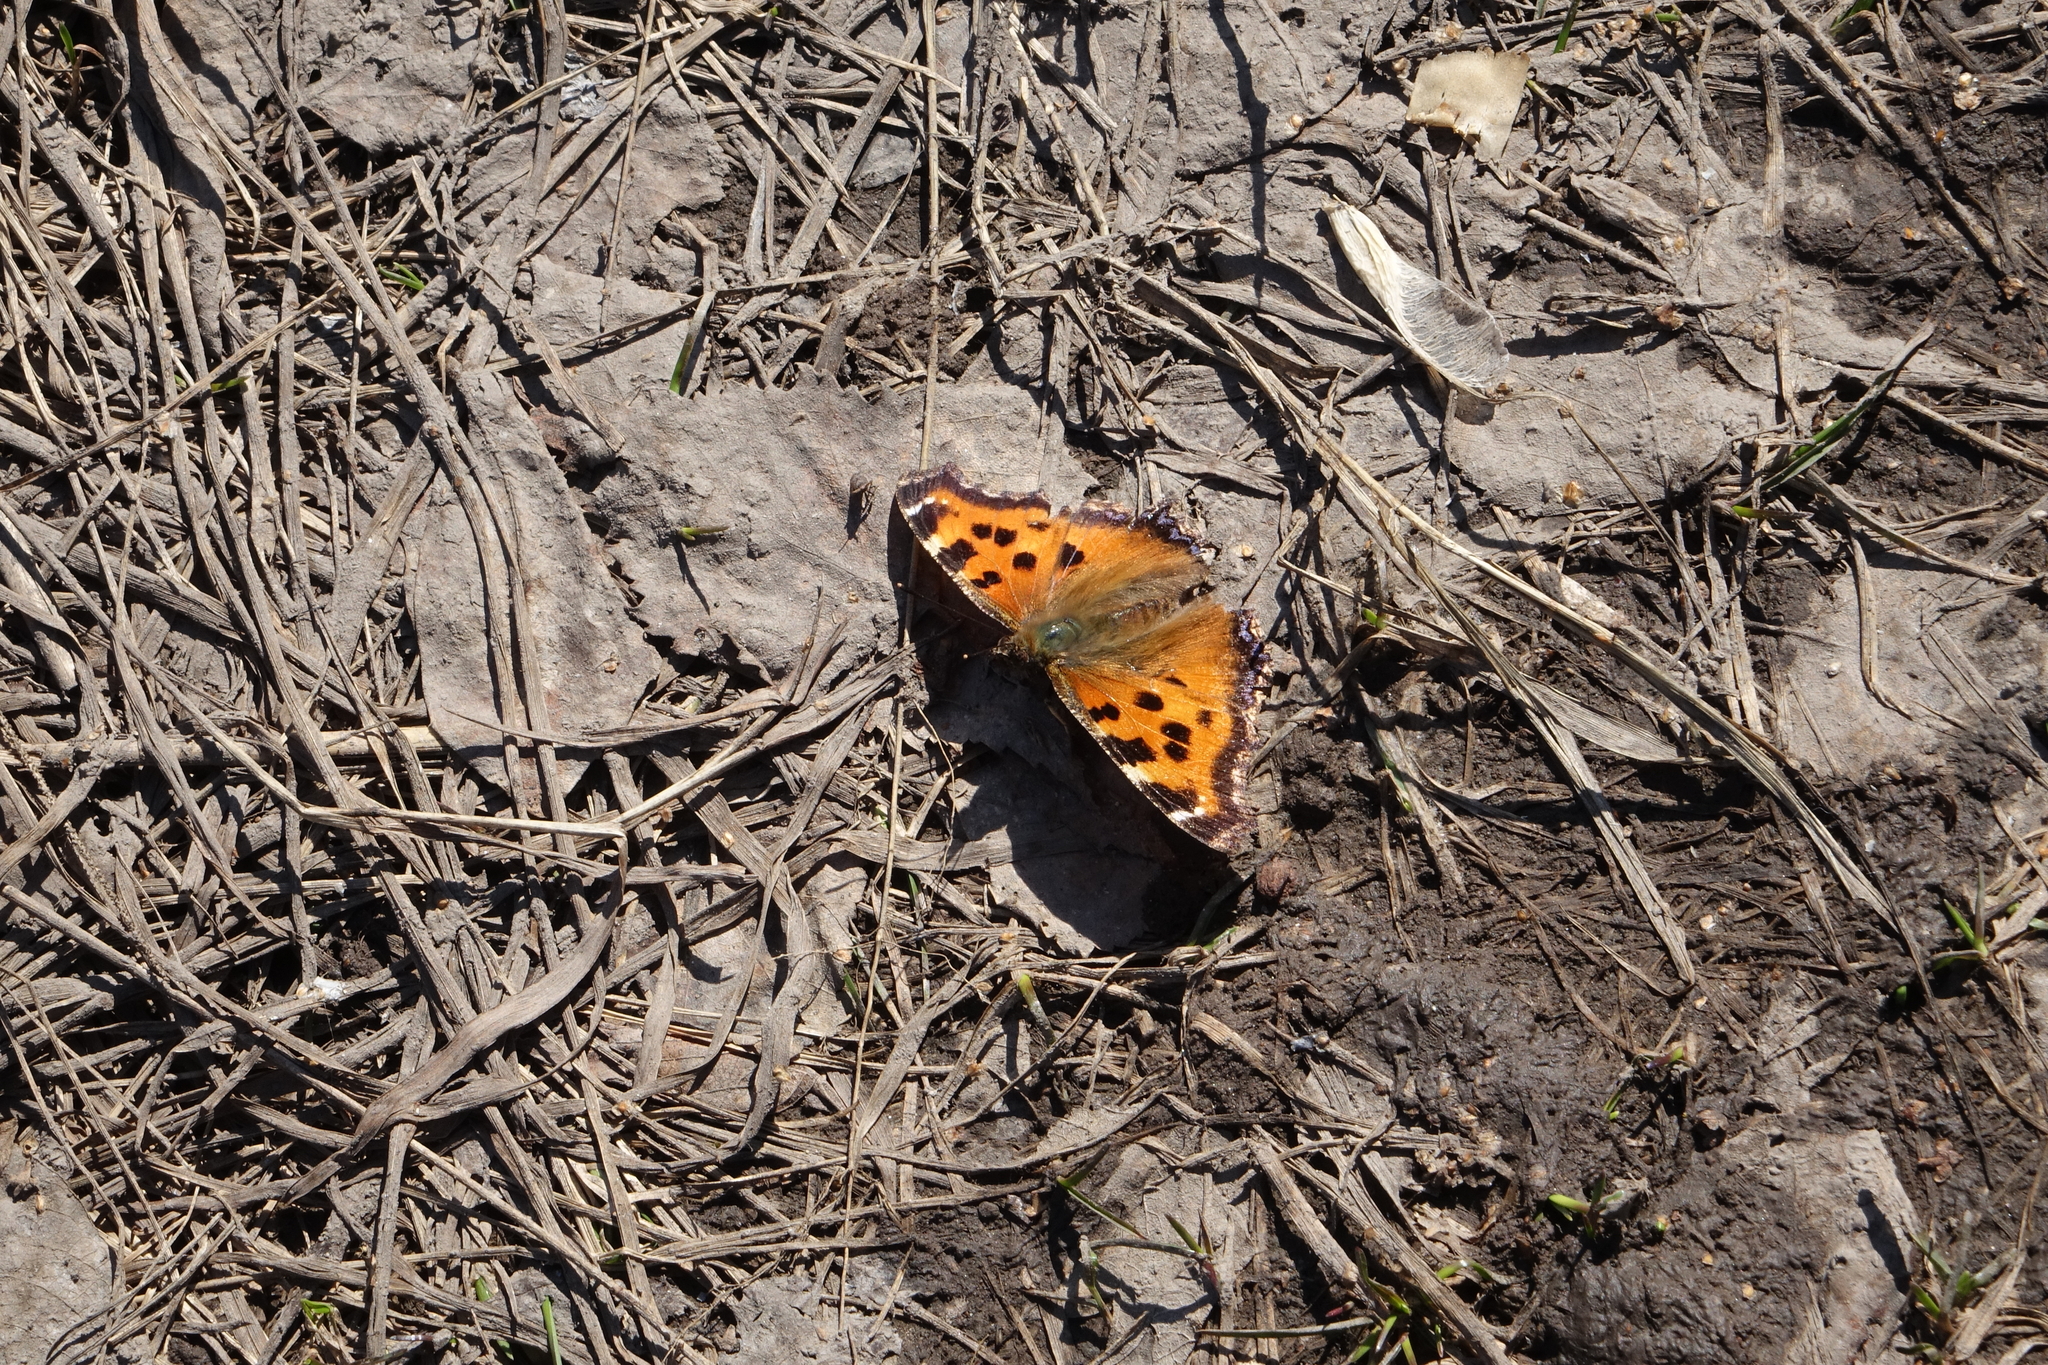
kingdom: Animalia
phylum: Arthropoda
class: Insecta
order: Lepidoptera
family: Nymphalidae
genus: Nymphalis
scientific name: Nymphalis xanthomelas
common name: Scarce tortoiseshell
